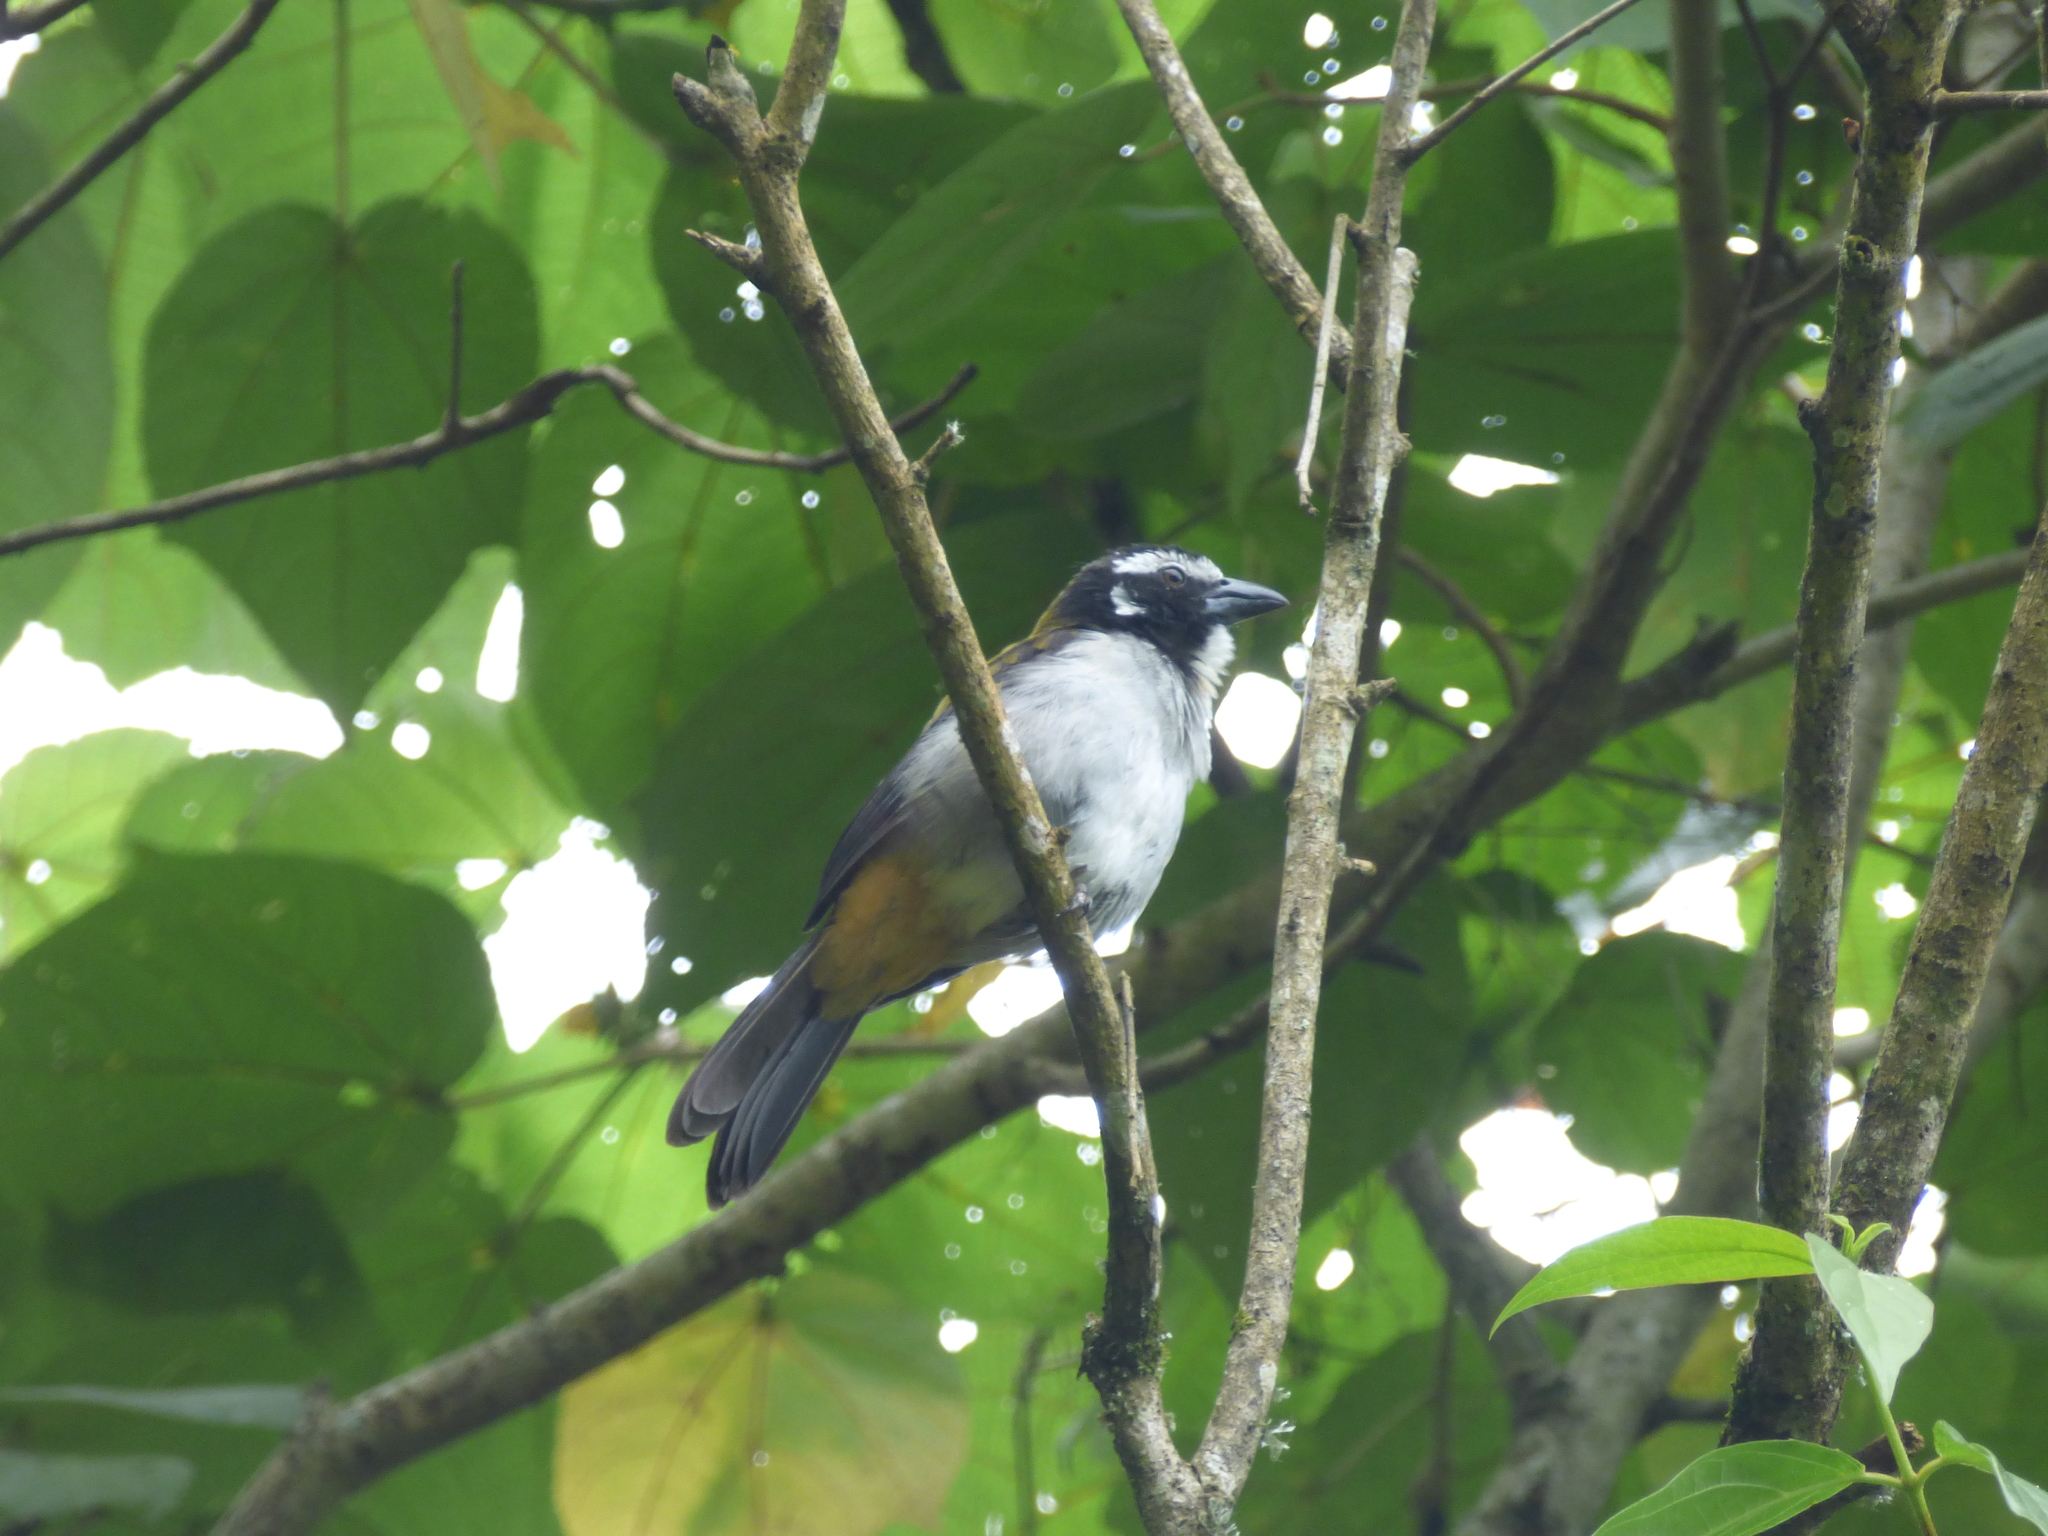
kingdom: Animalia
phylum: Chordata
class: Aves
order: Passeriformes
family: Thraupidae
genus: Saltator
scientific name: Saltator atripennis
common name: Black-winged saltator
